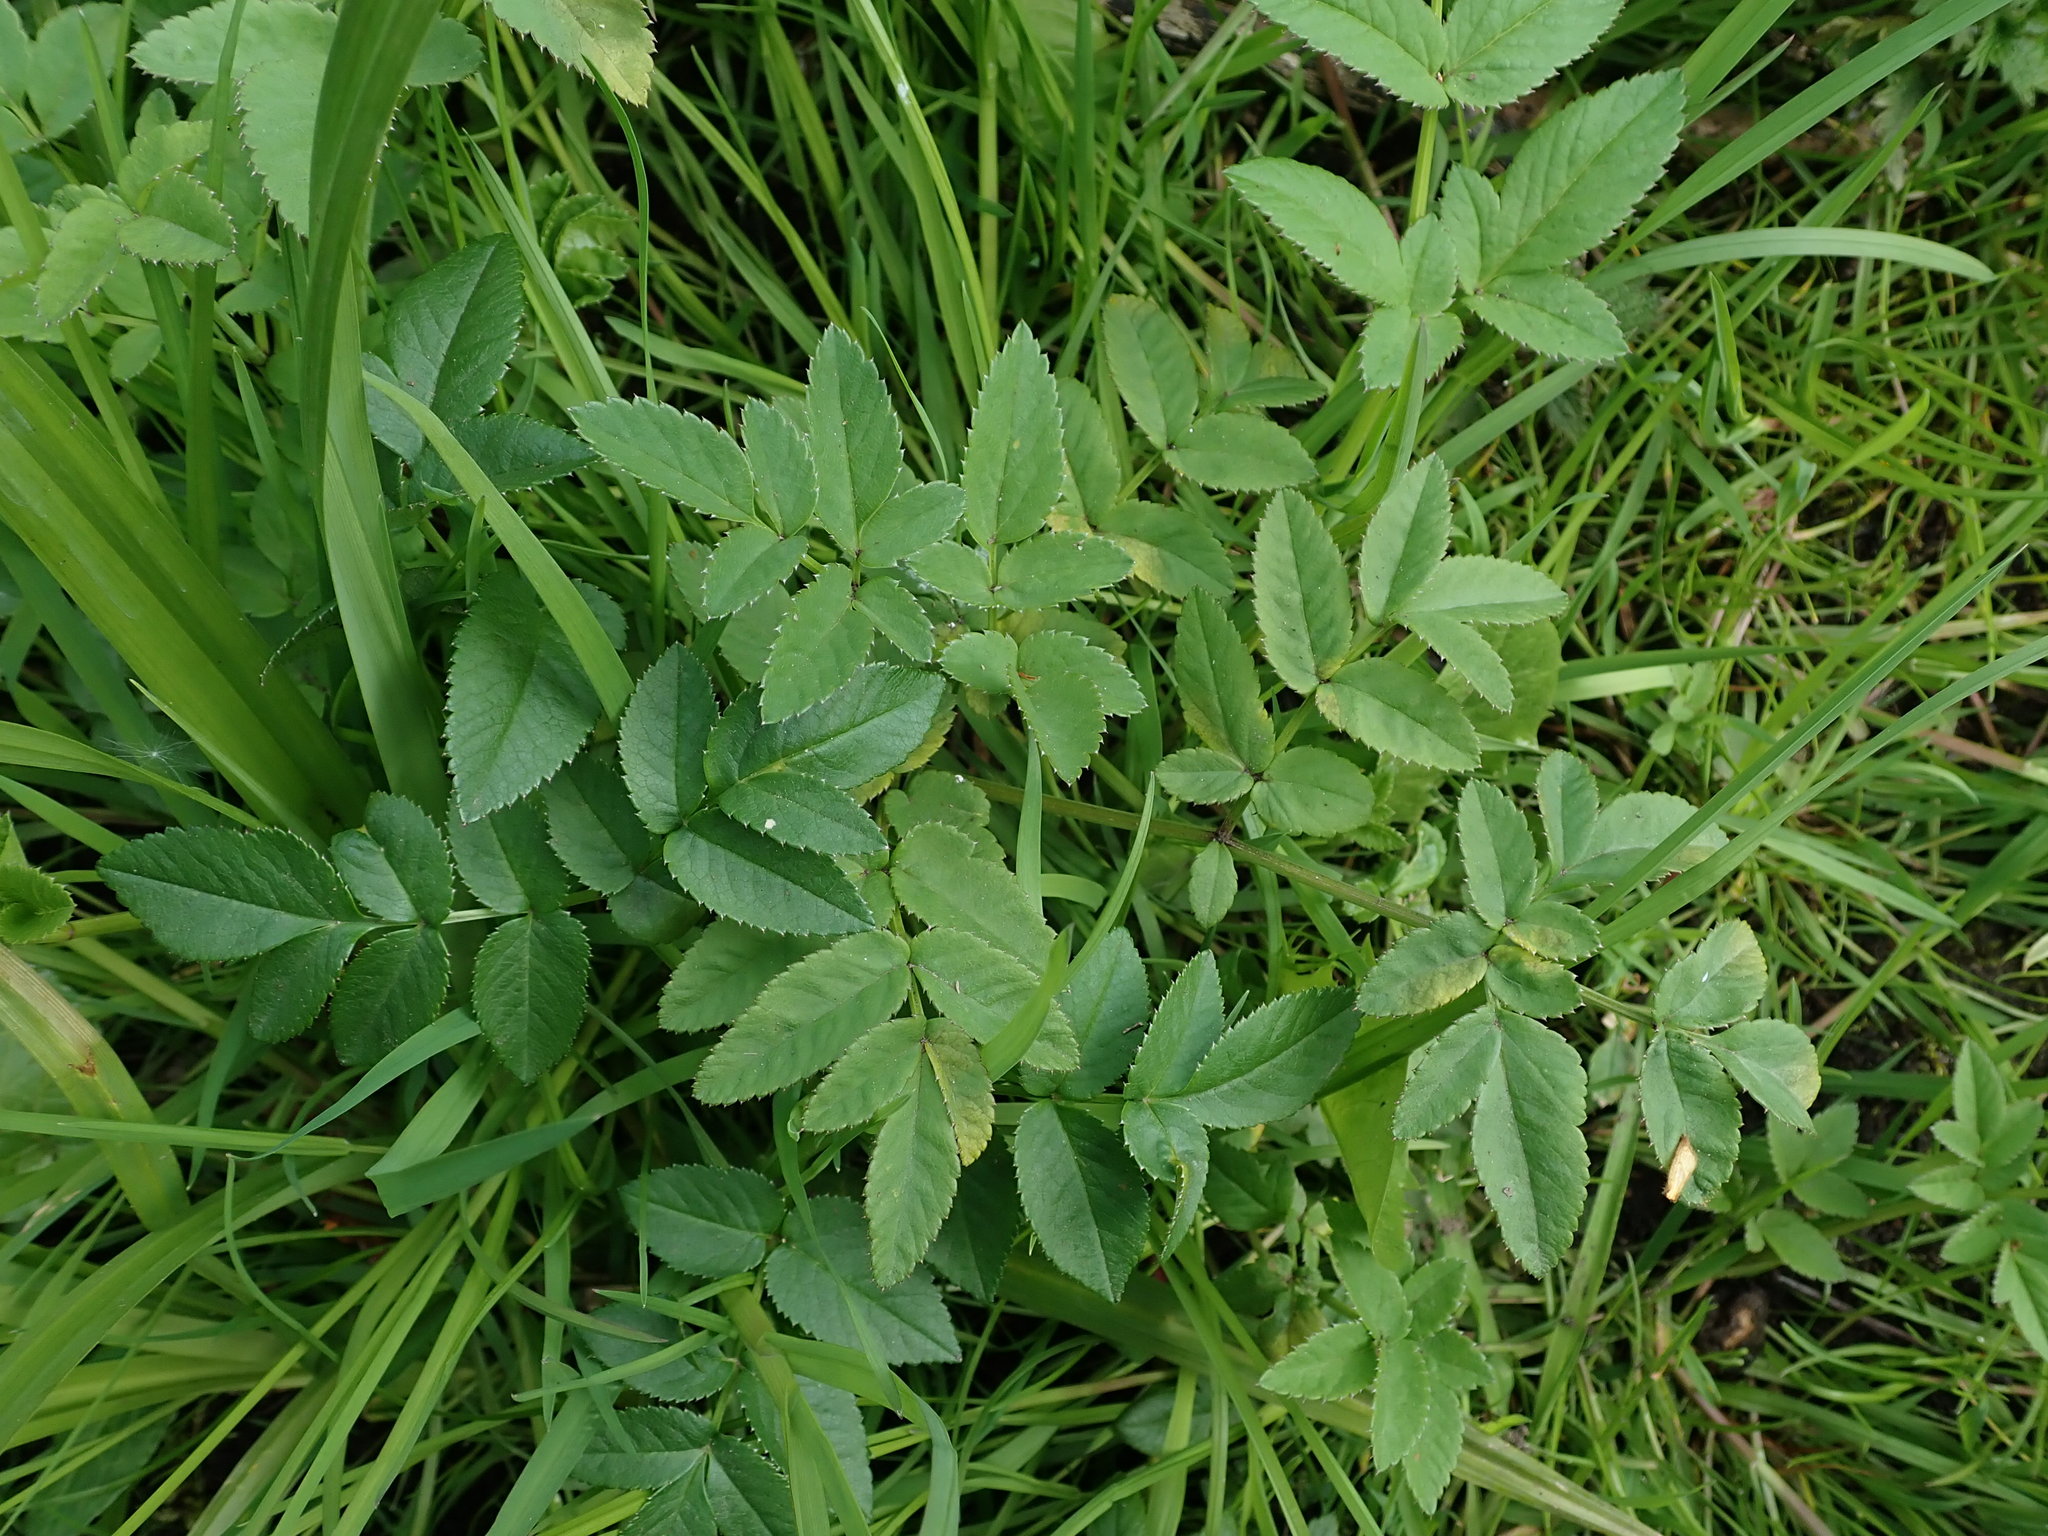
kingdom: Plantae
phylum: Tracheophyta
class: Magnoliopsida
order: Apiales
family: Apiaceae
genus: Angelica
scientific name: Angelica sylvestris
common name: Wild angelica
